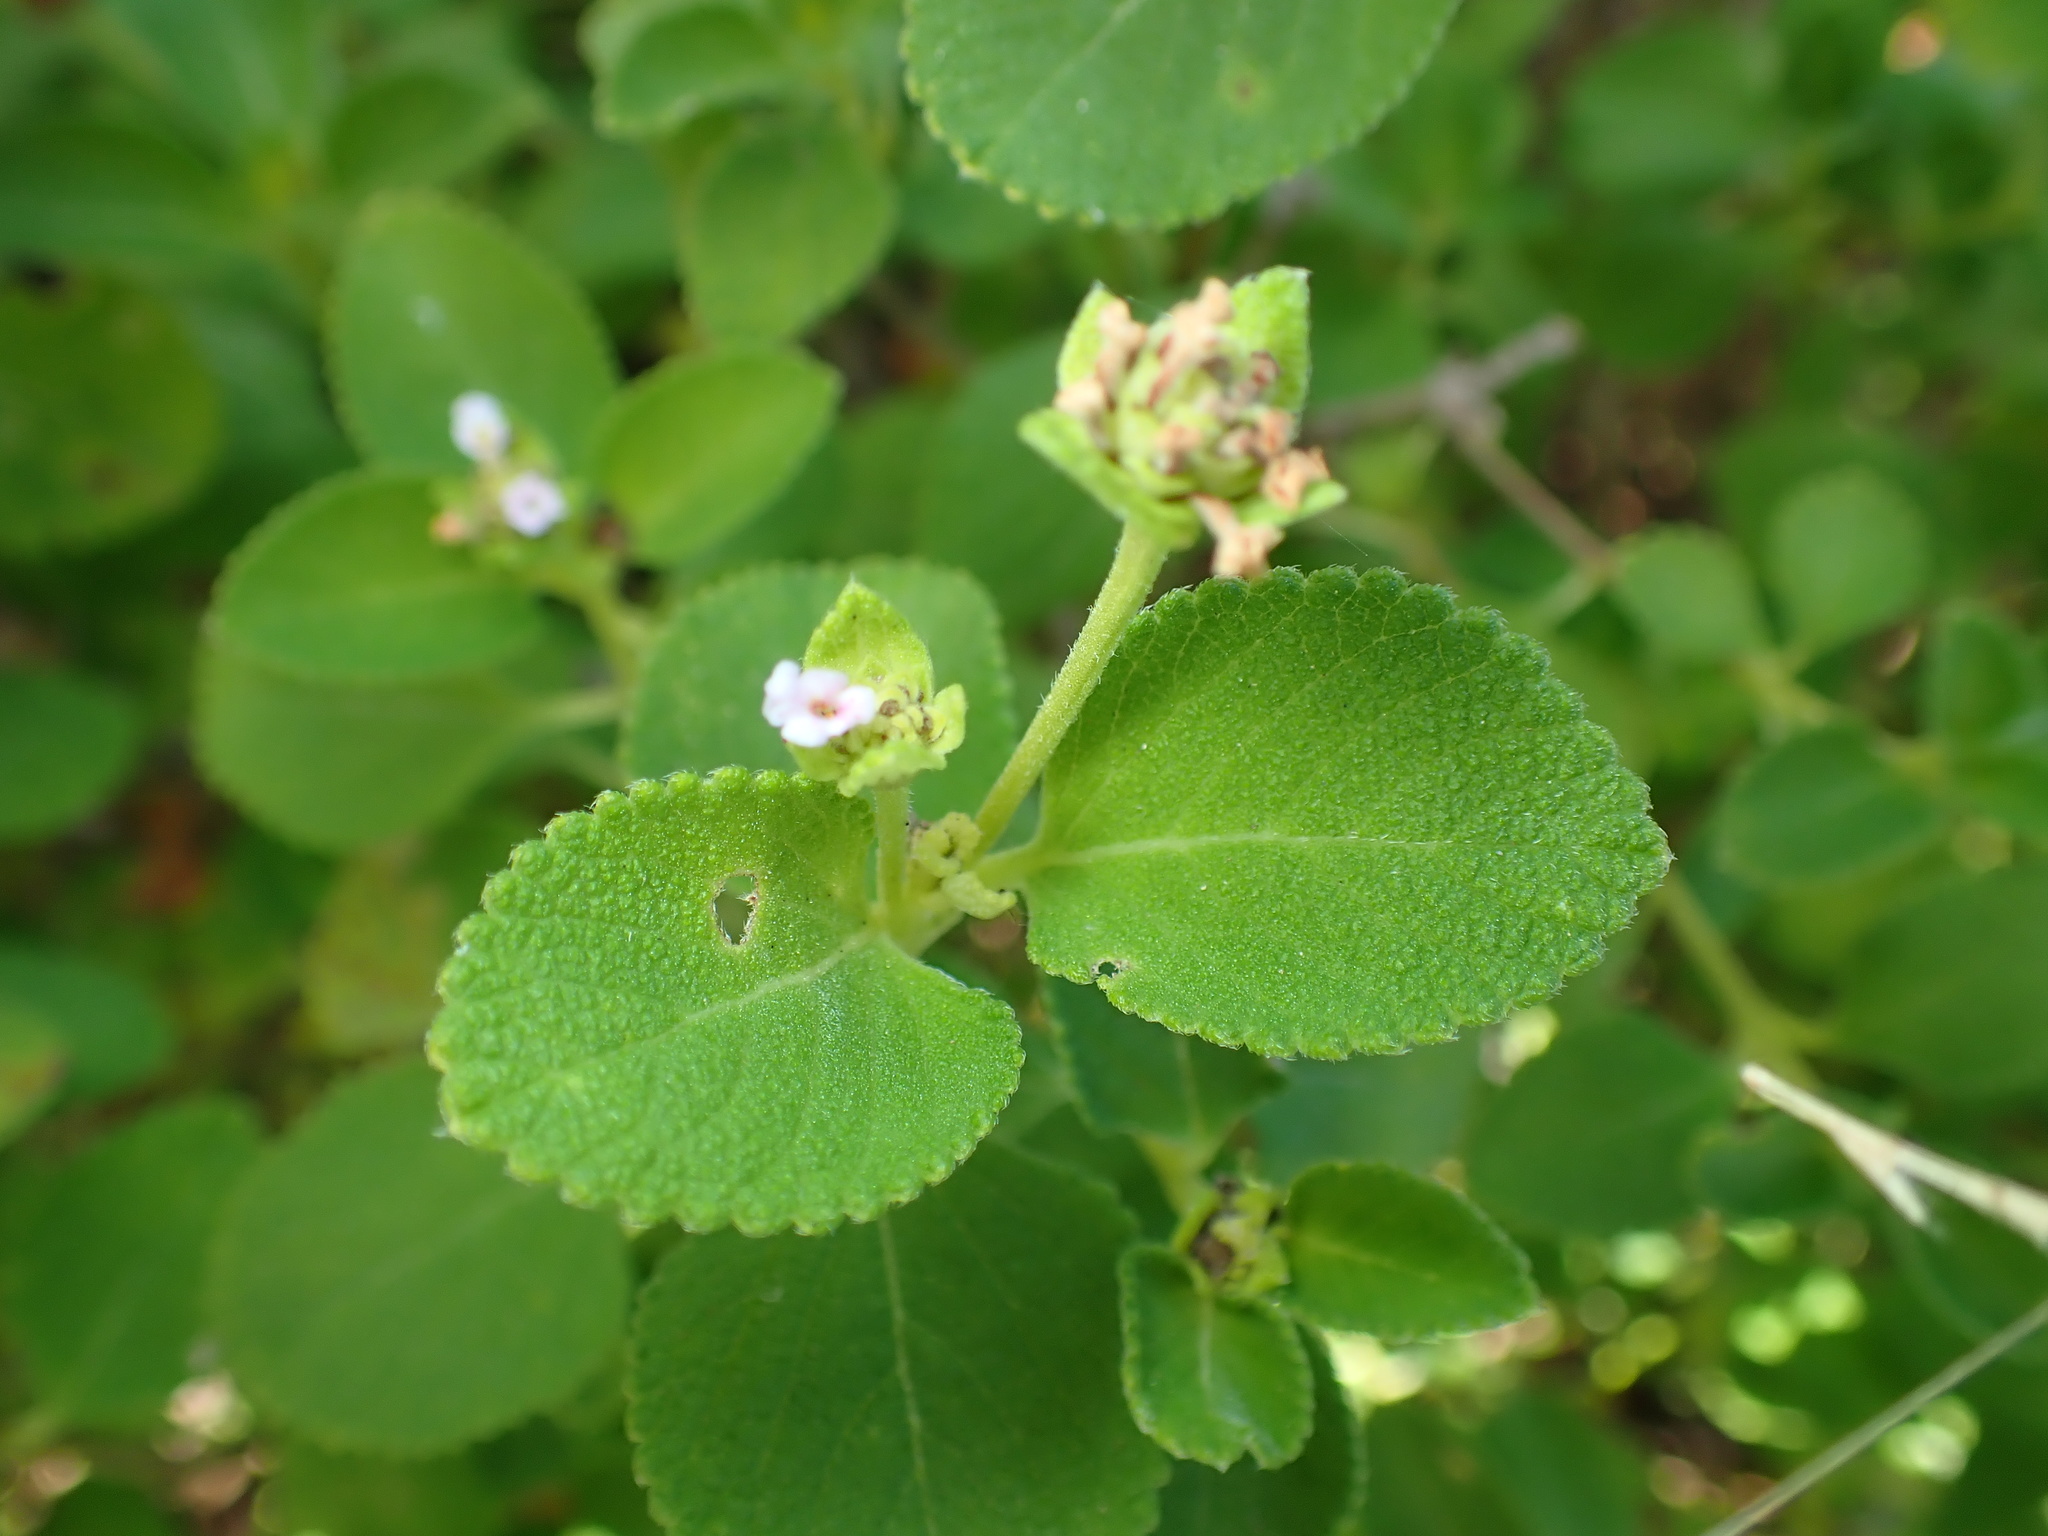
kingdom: Plantae
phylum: Tracheophyta
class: Magnoliopsida
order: Lamiales
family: Verbenaceae
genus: Lantana
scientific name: Lantana involucrata
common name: Black sage
